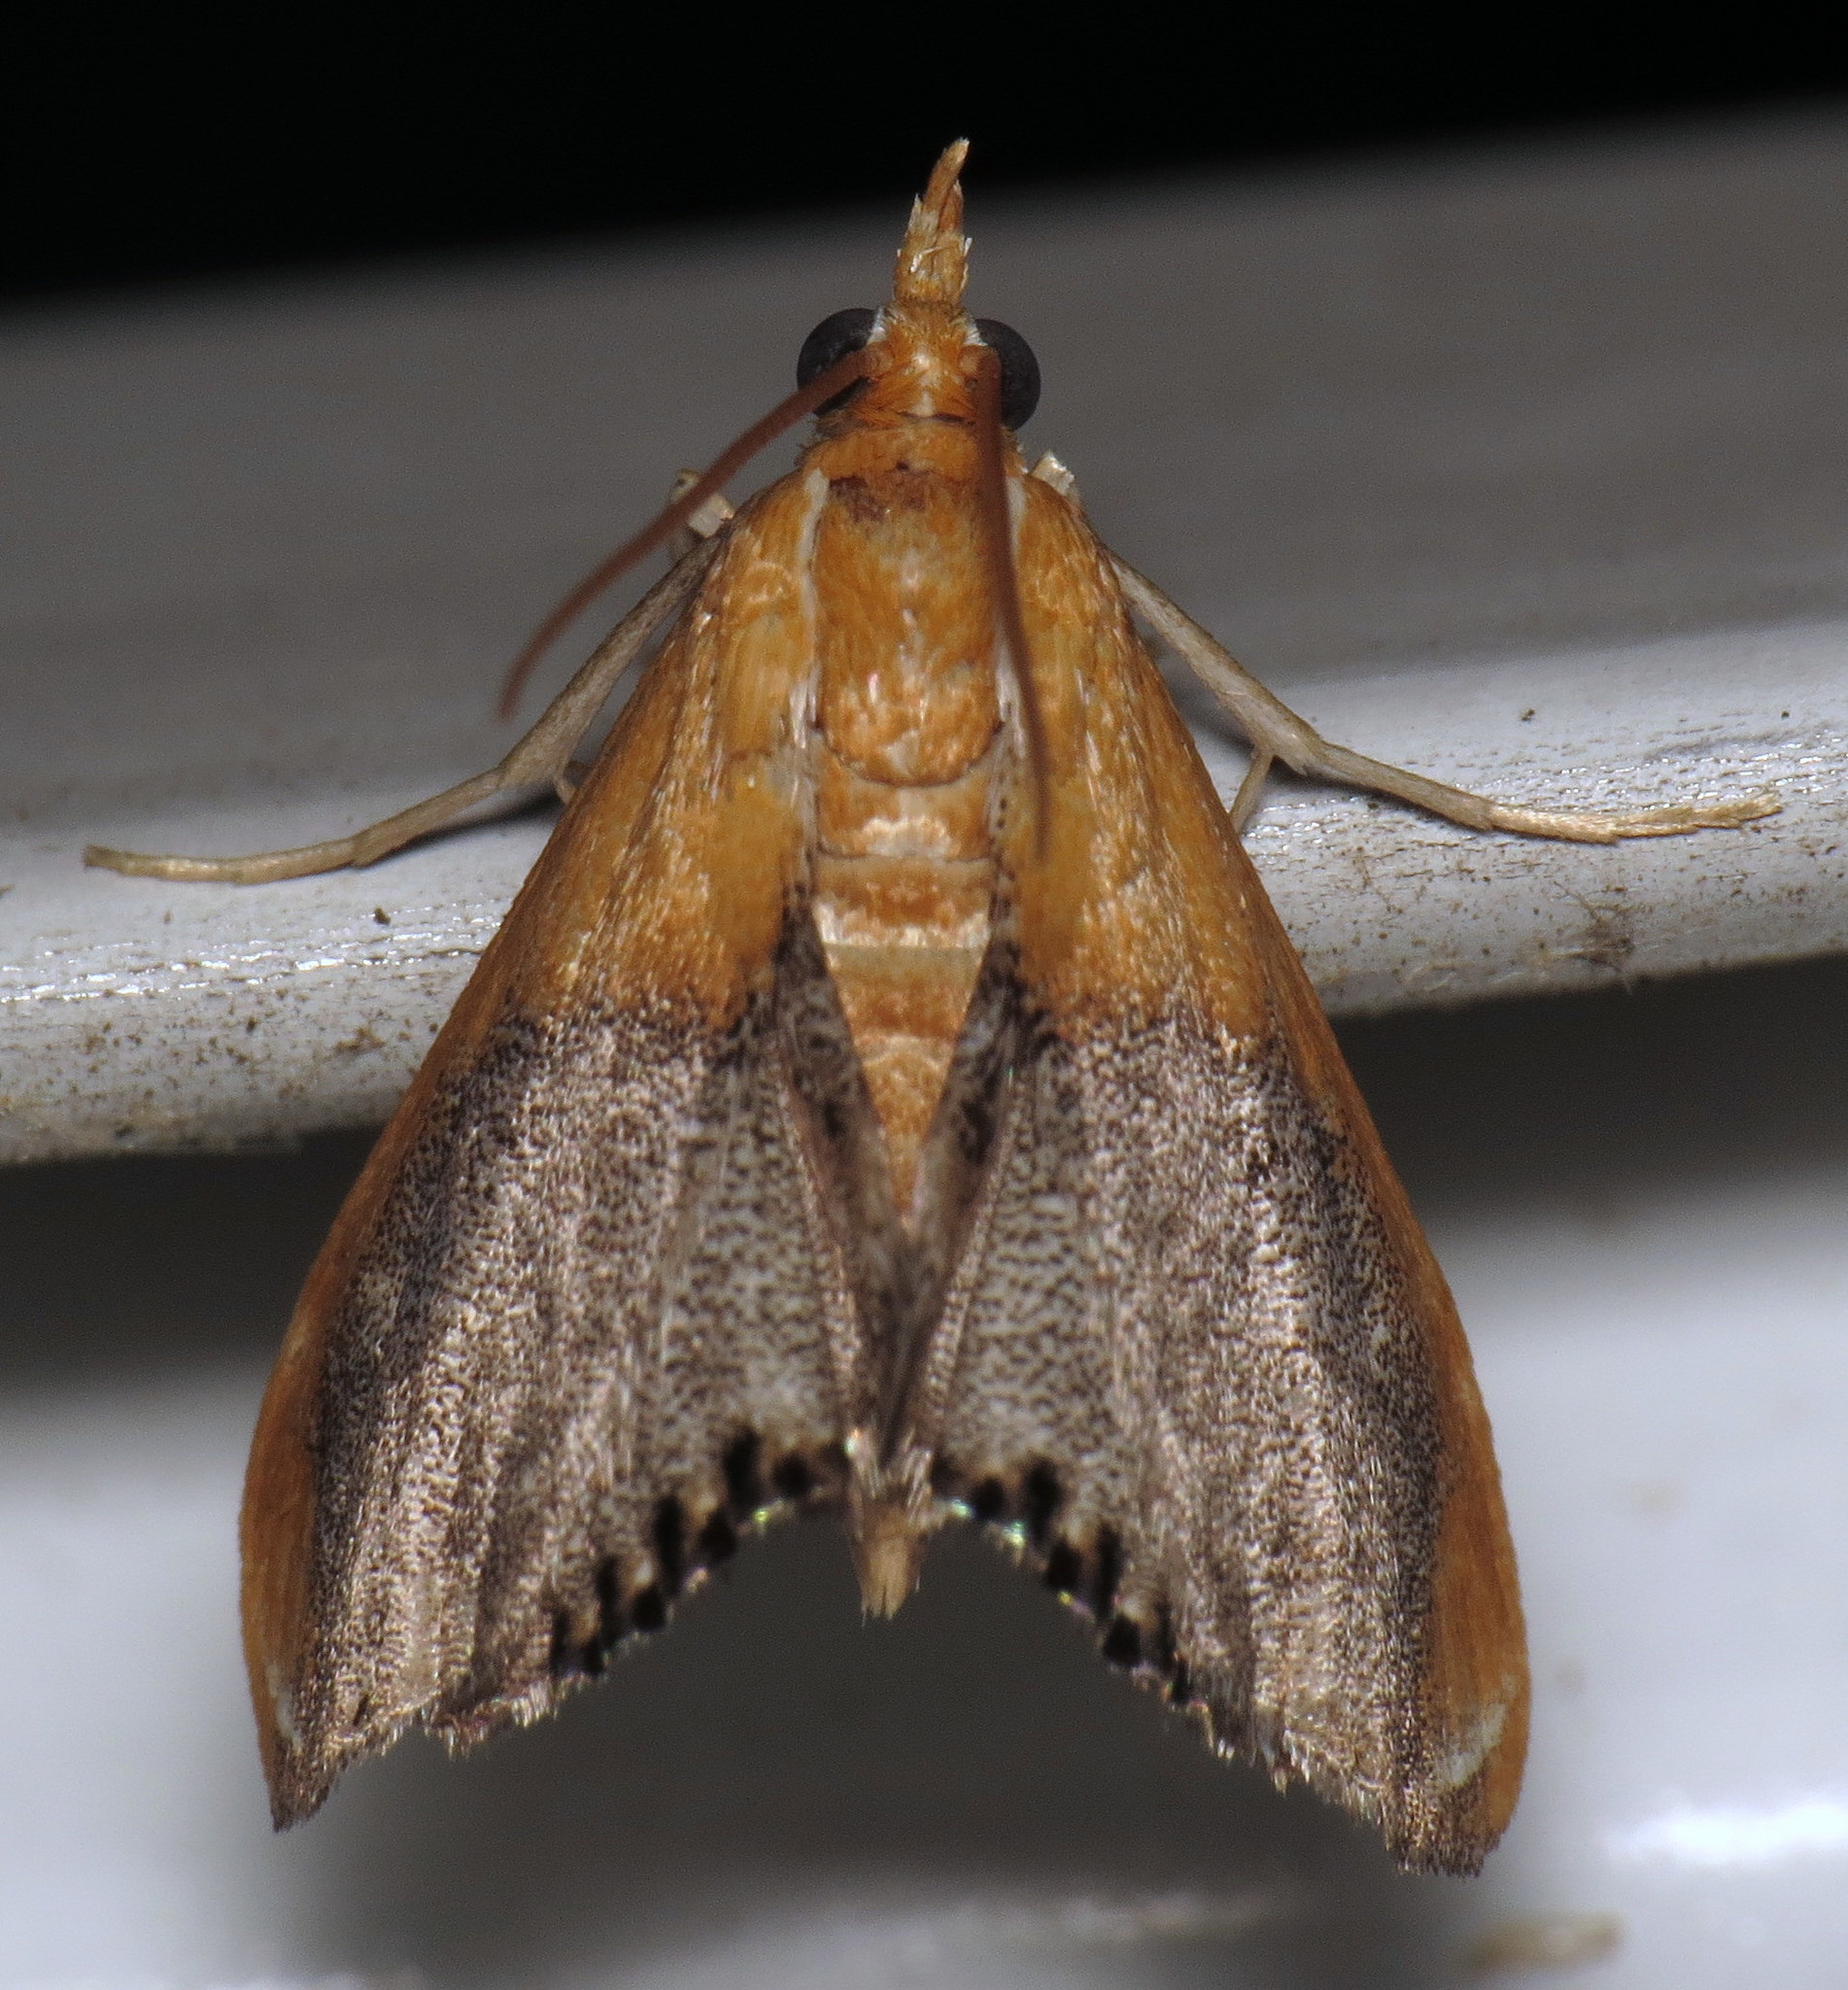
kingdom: Animalia
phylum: Arthropoda
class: Insecta
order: Lepidoptera
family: Crambidae
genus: Chalcoela
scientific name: Chalcoela iphitalis
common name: Sooty-winged chalcoela moth
